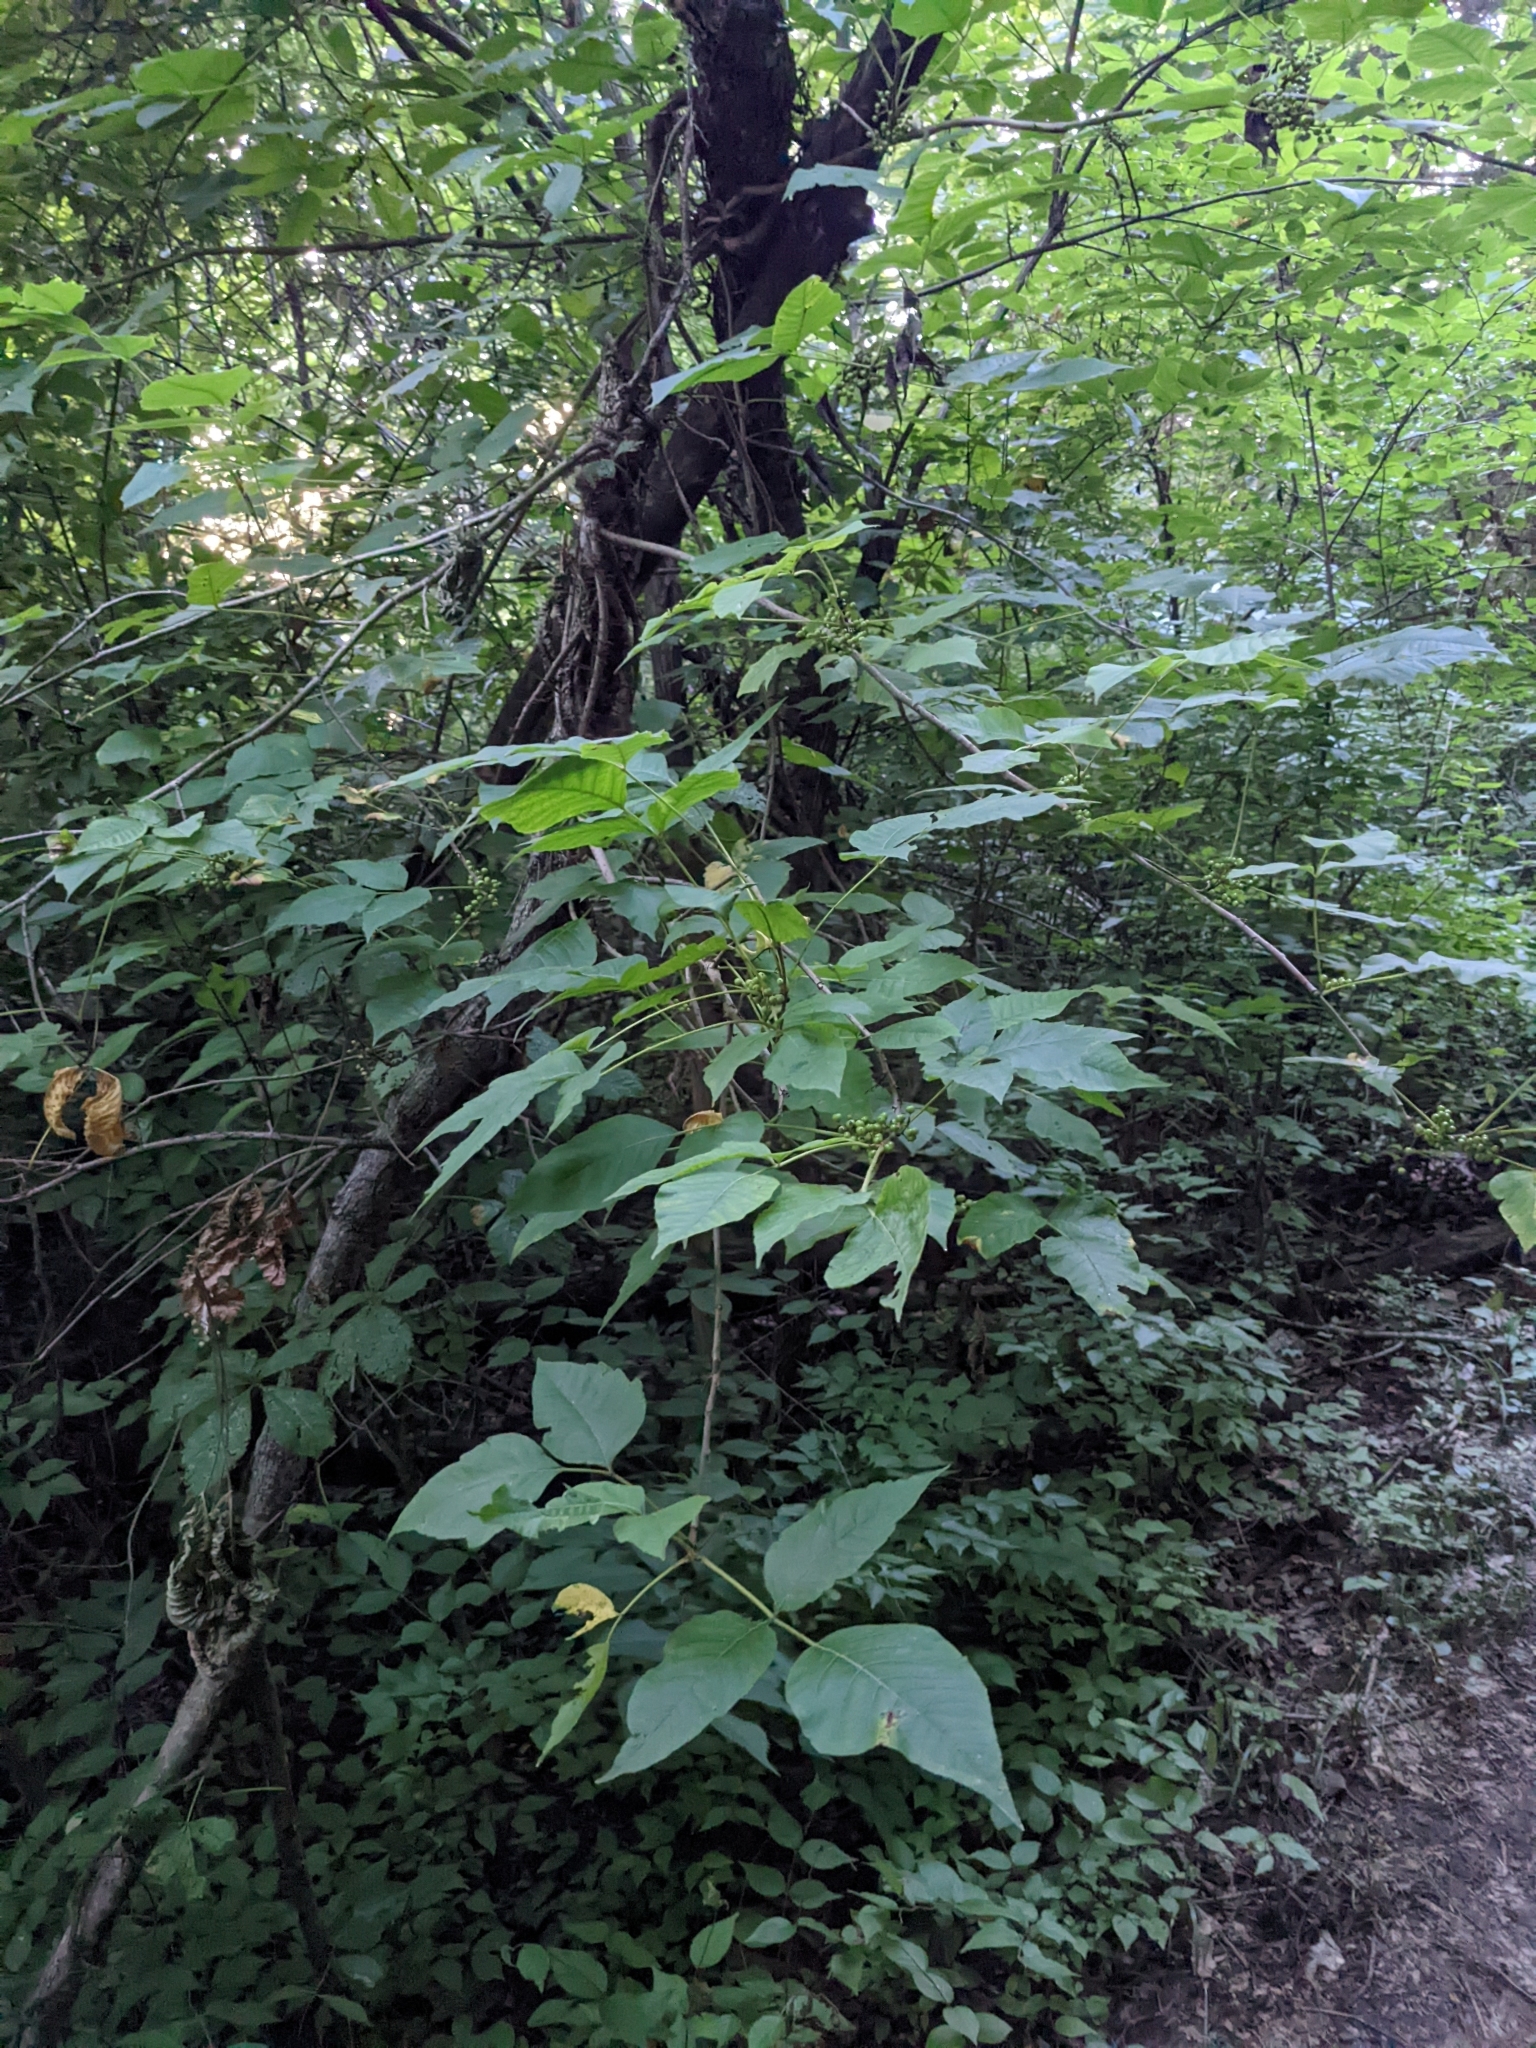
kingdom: Plantae
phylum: Tracheophyta
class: Magnoliopsida
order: Sapindales
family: Anacardiaceae
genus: Toxicodendron
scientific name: Toxicodendron radicans
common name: Poison ivy
